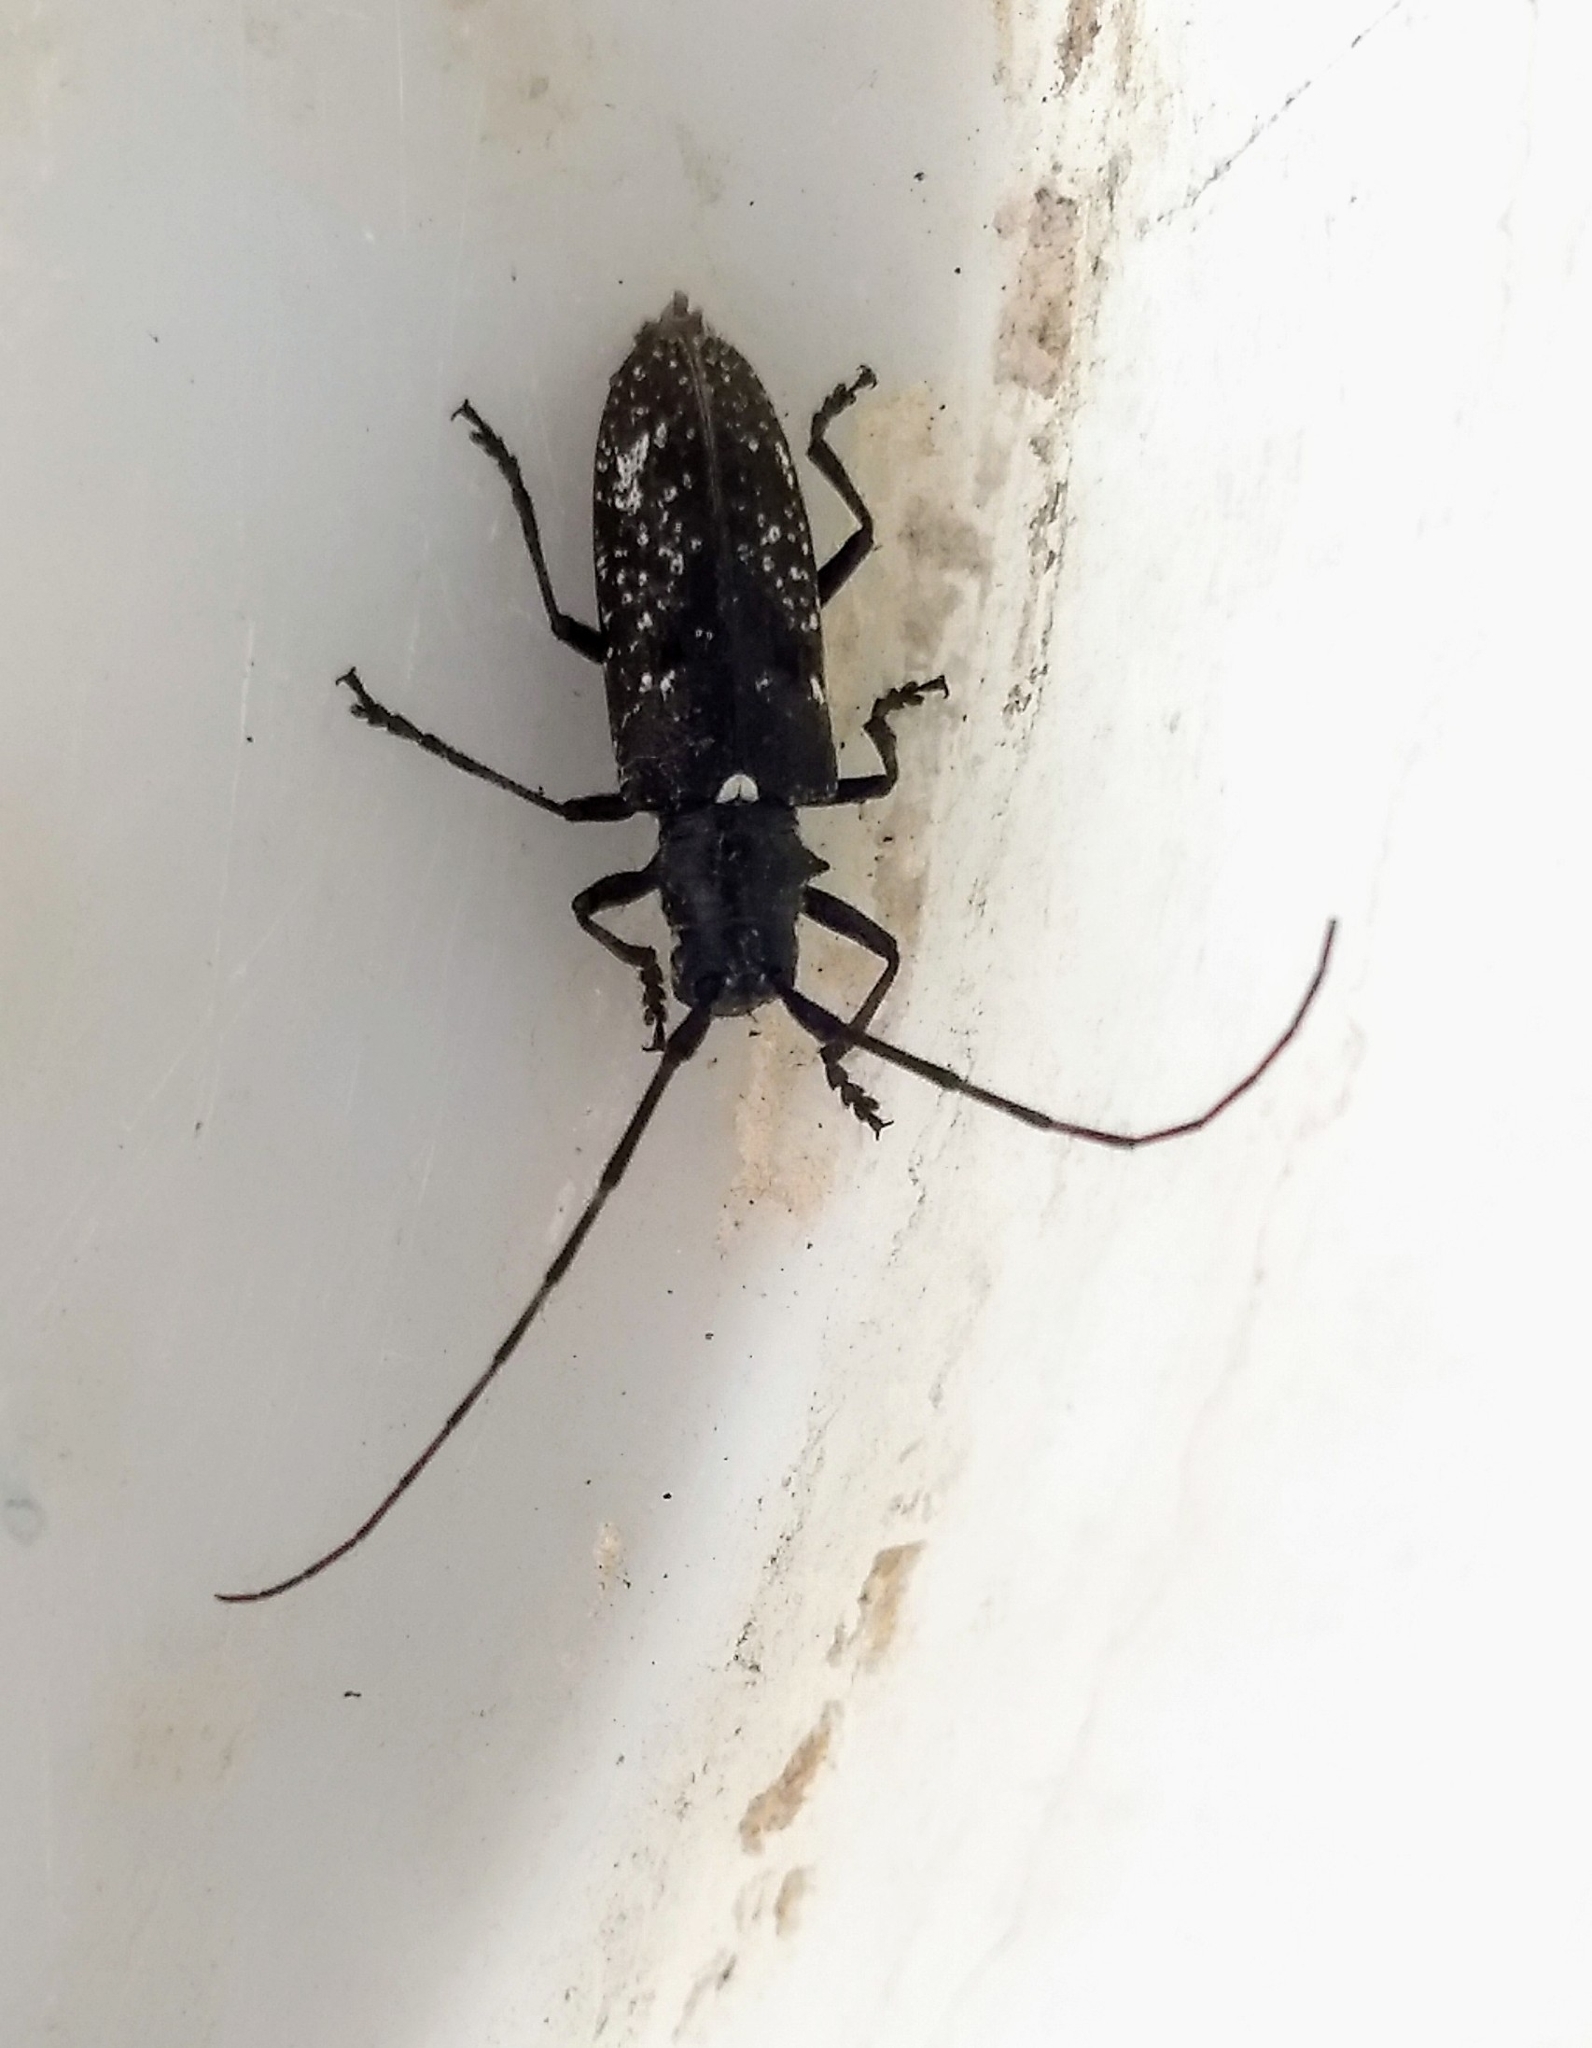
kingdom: Animalia
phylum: Arthropoda
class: Insecta
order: Coleoptera
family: Cerambycidae
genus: Monochamus
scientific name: Monochamus scutellatus
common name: White-spotted sawyer beetle
